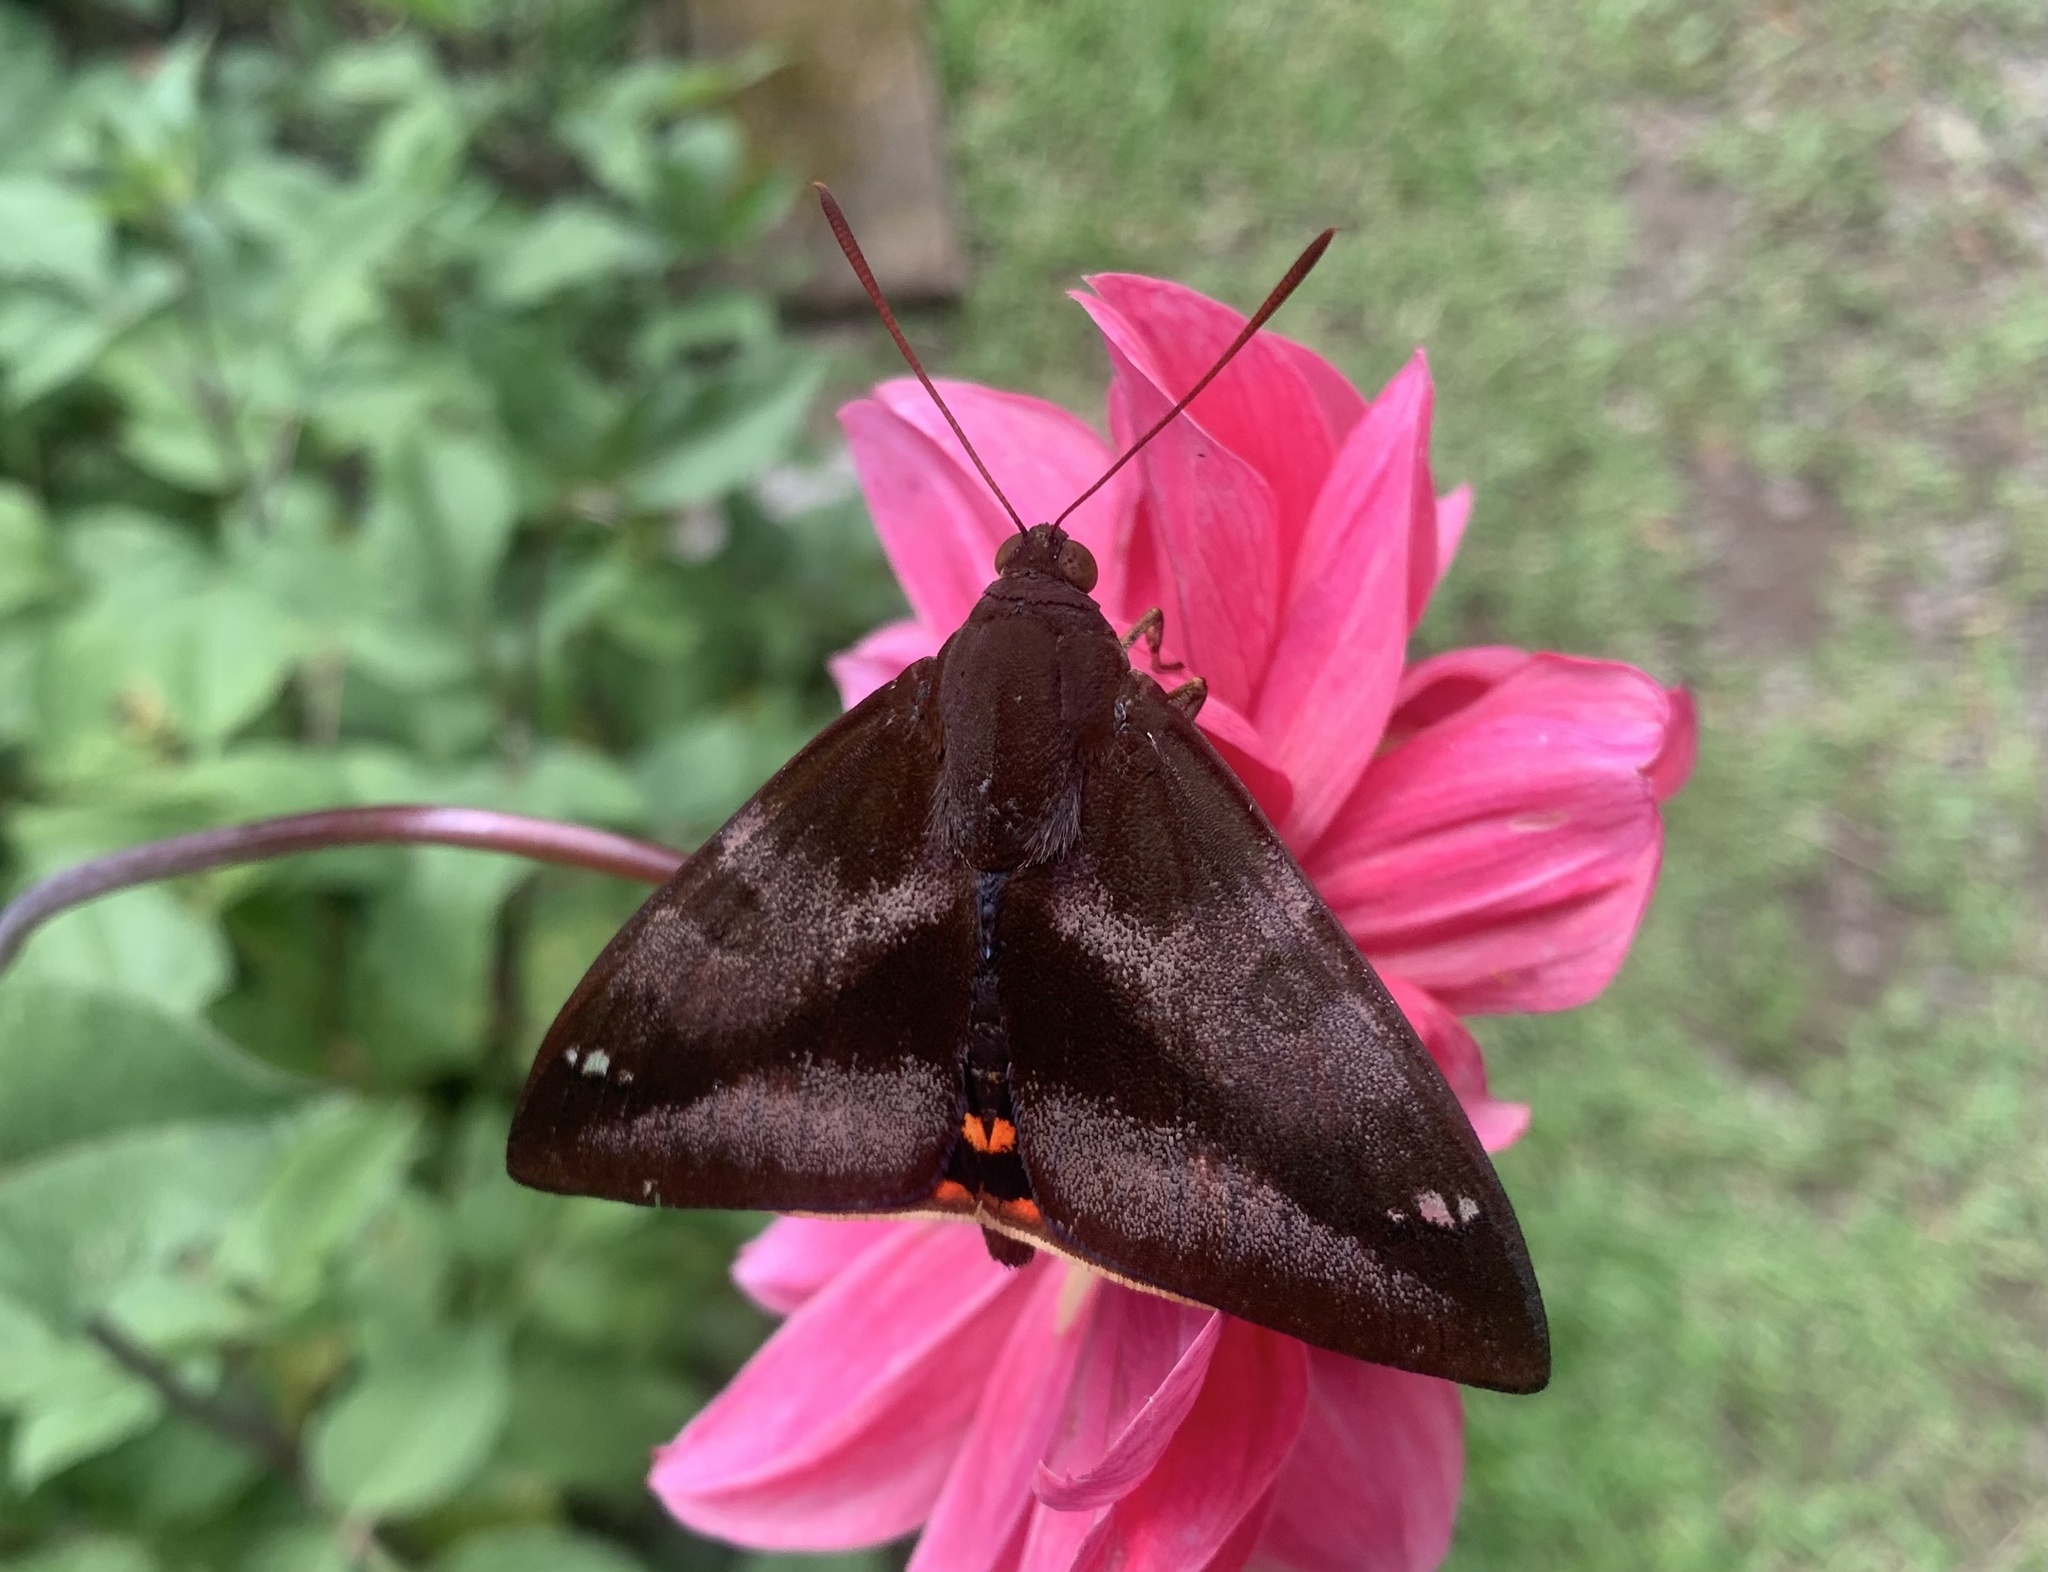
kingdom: Animalia
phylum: Arthropoda
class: Insecta
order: Lepidoptera
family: Castniidae
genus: Hista
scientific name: Hista fabricii
